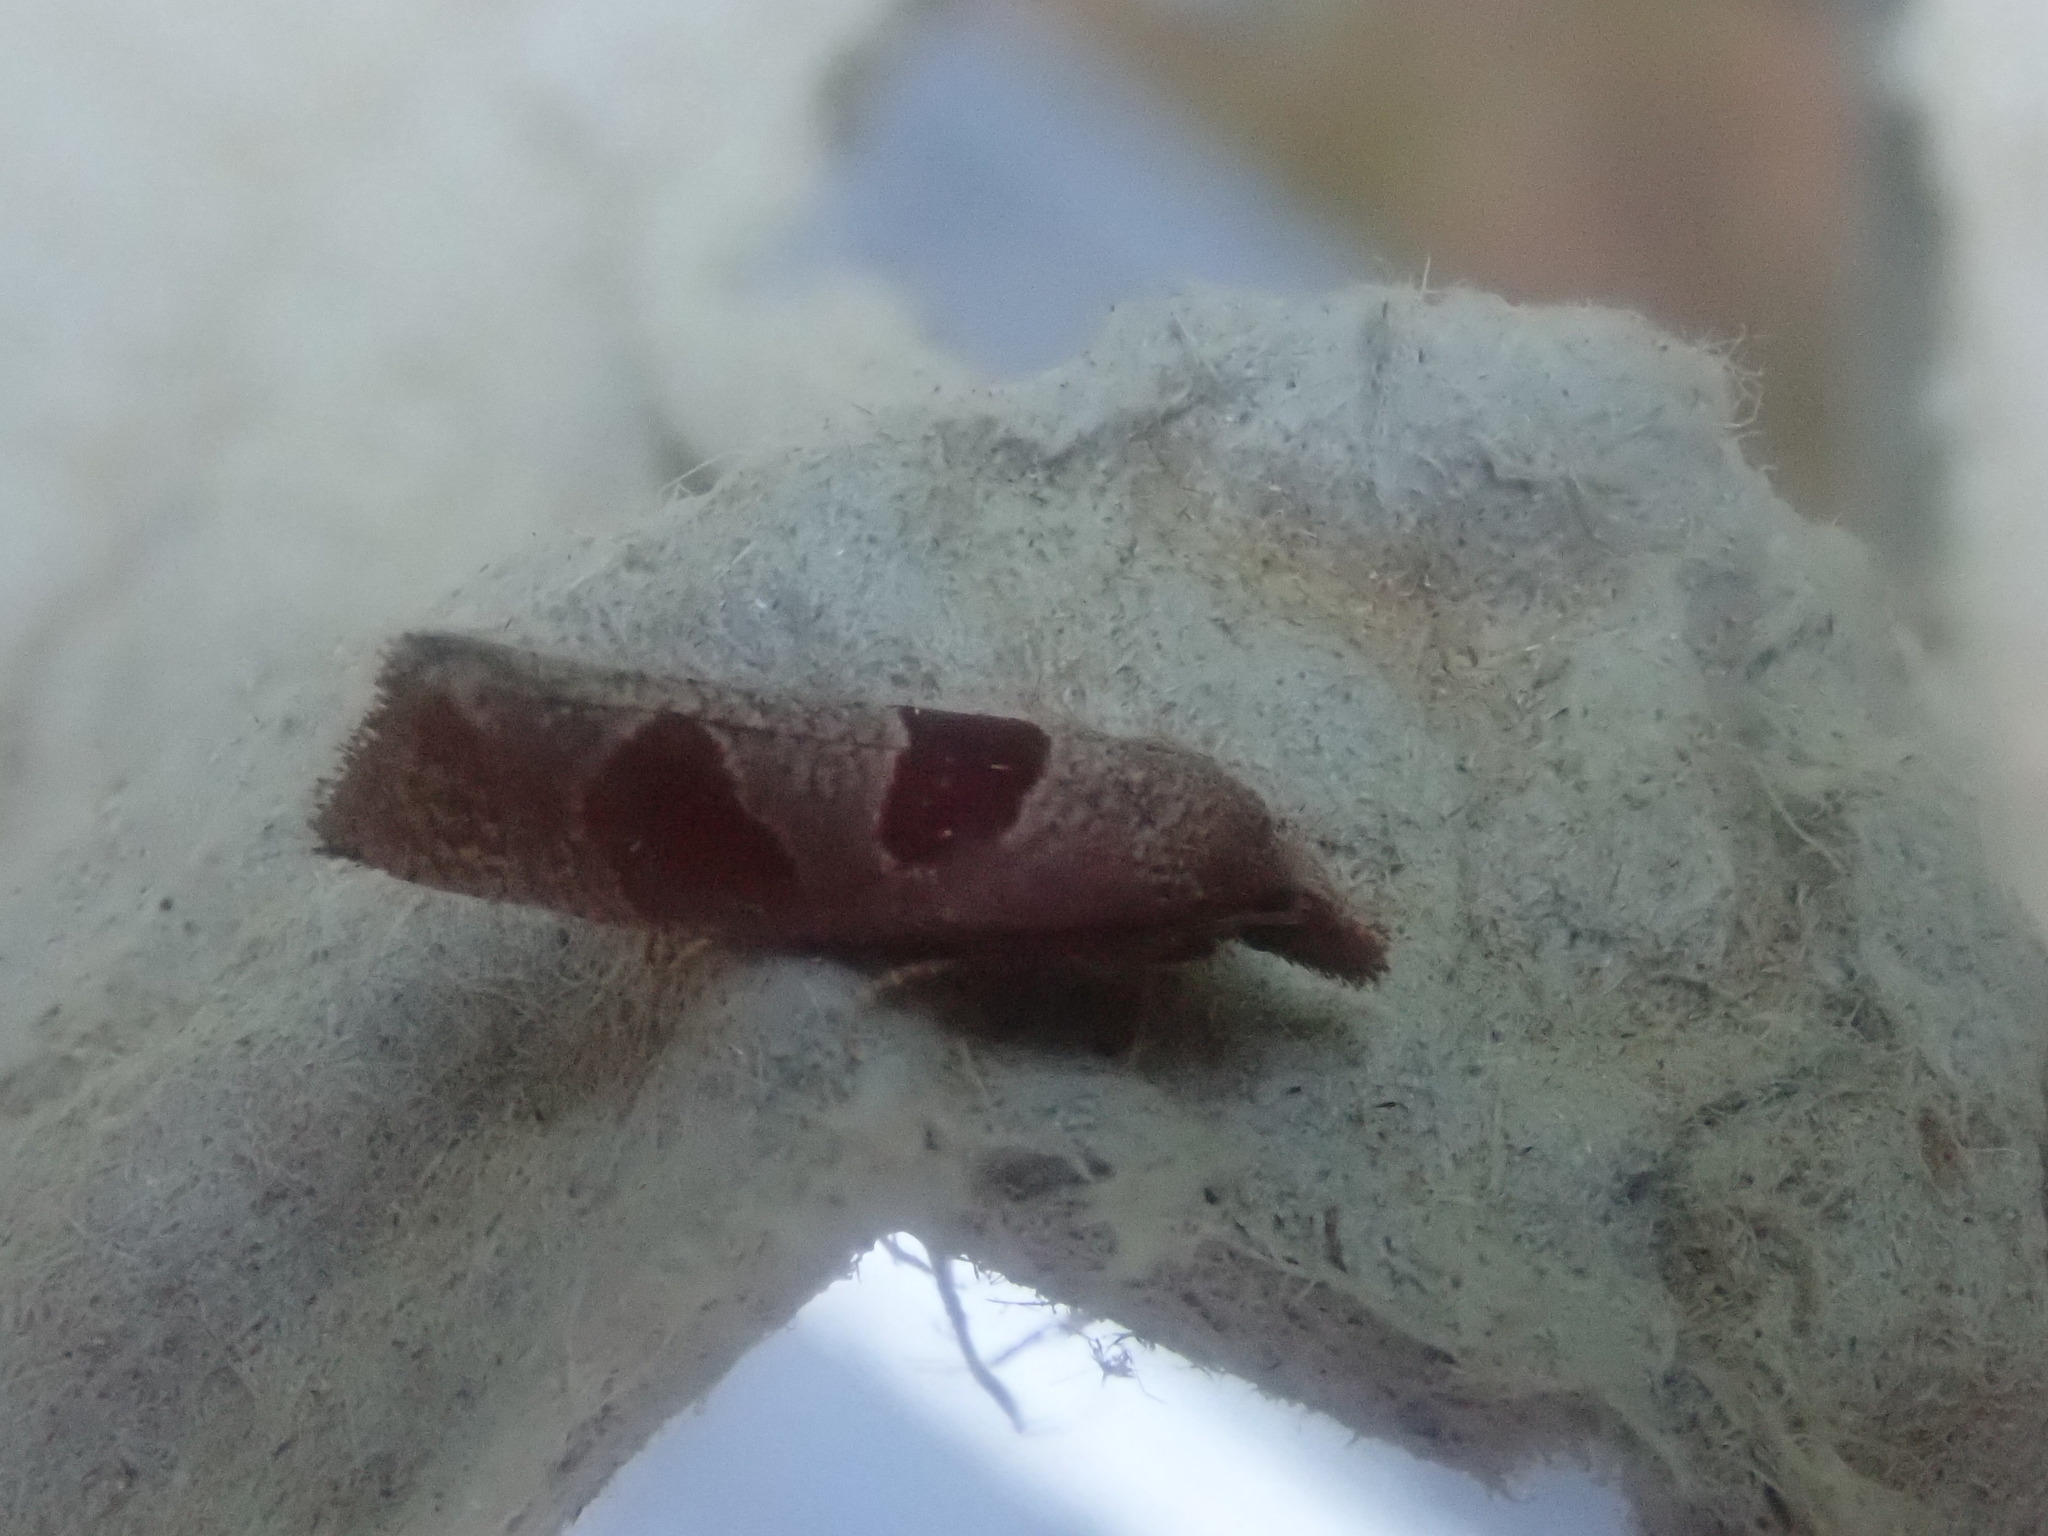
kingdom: Animalia
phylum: Arthropoda
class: Insecta
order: Lepidoptera
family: Tortricidae
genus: Pelochrista
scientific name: Pelochrista dorsisignatana
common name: Triangle-backed pelochrista moth
